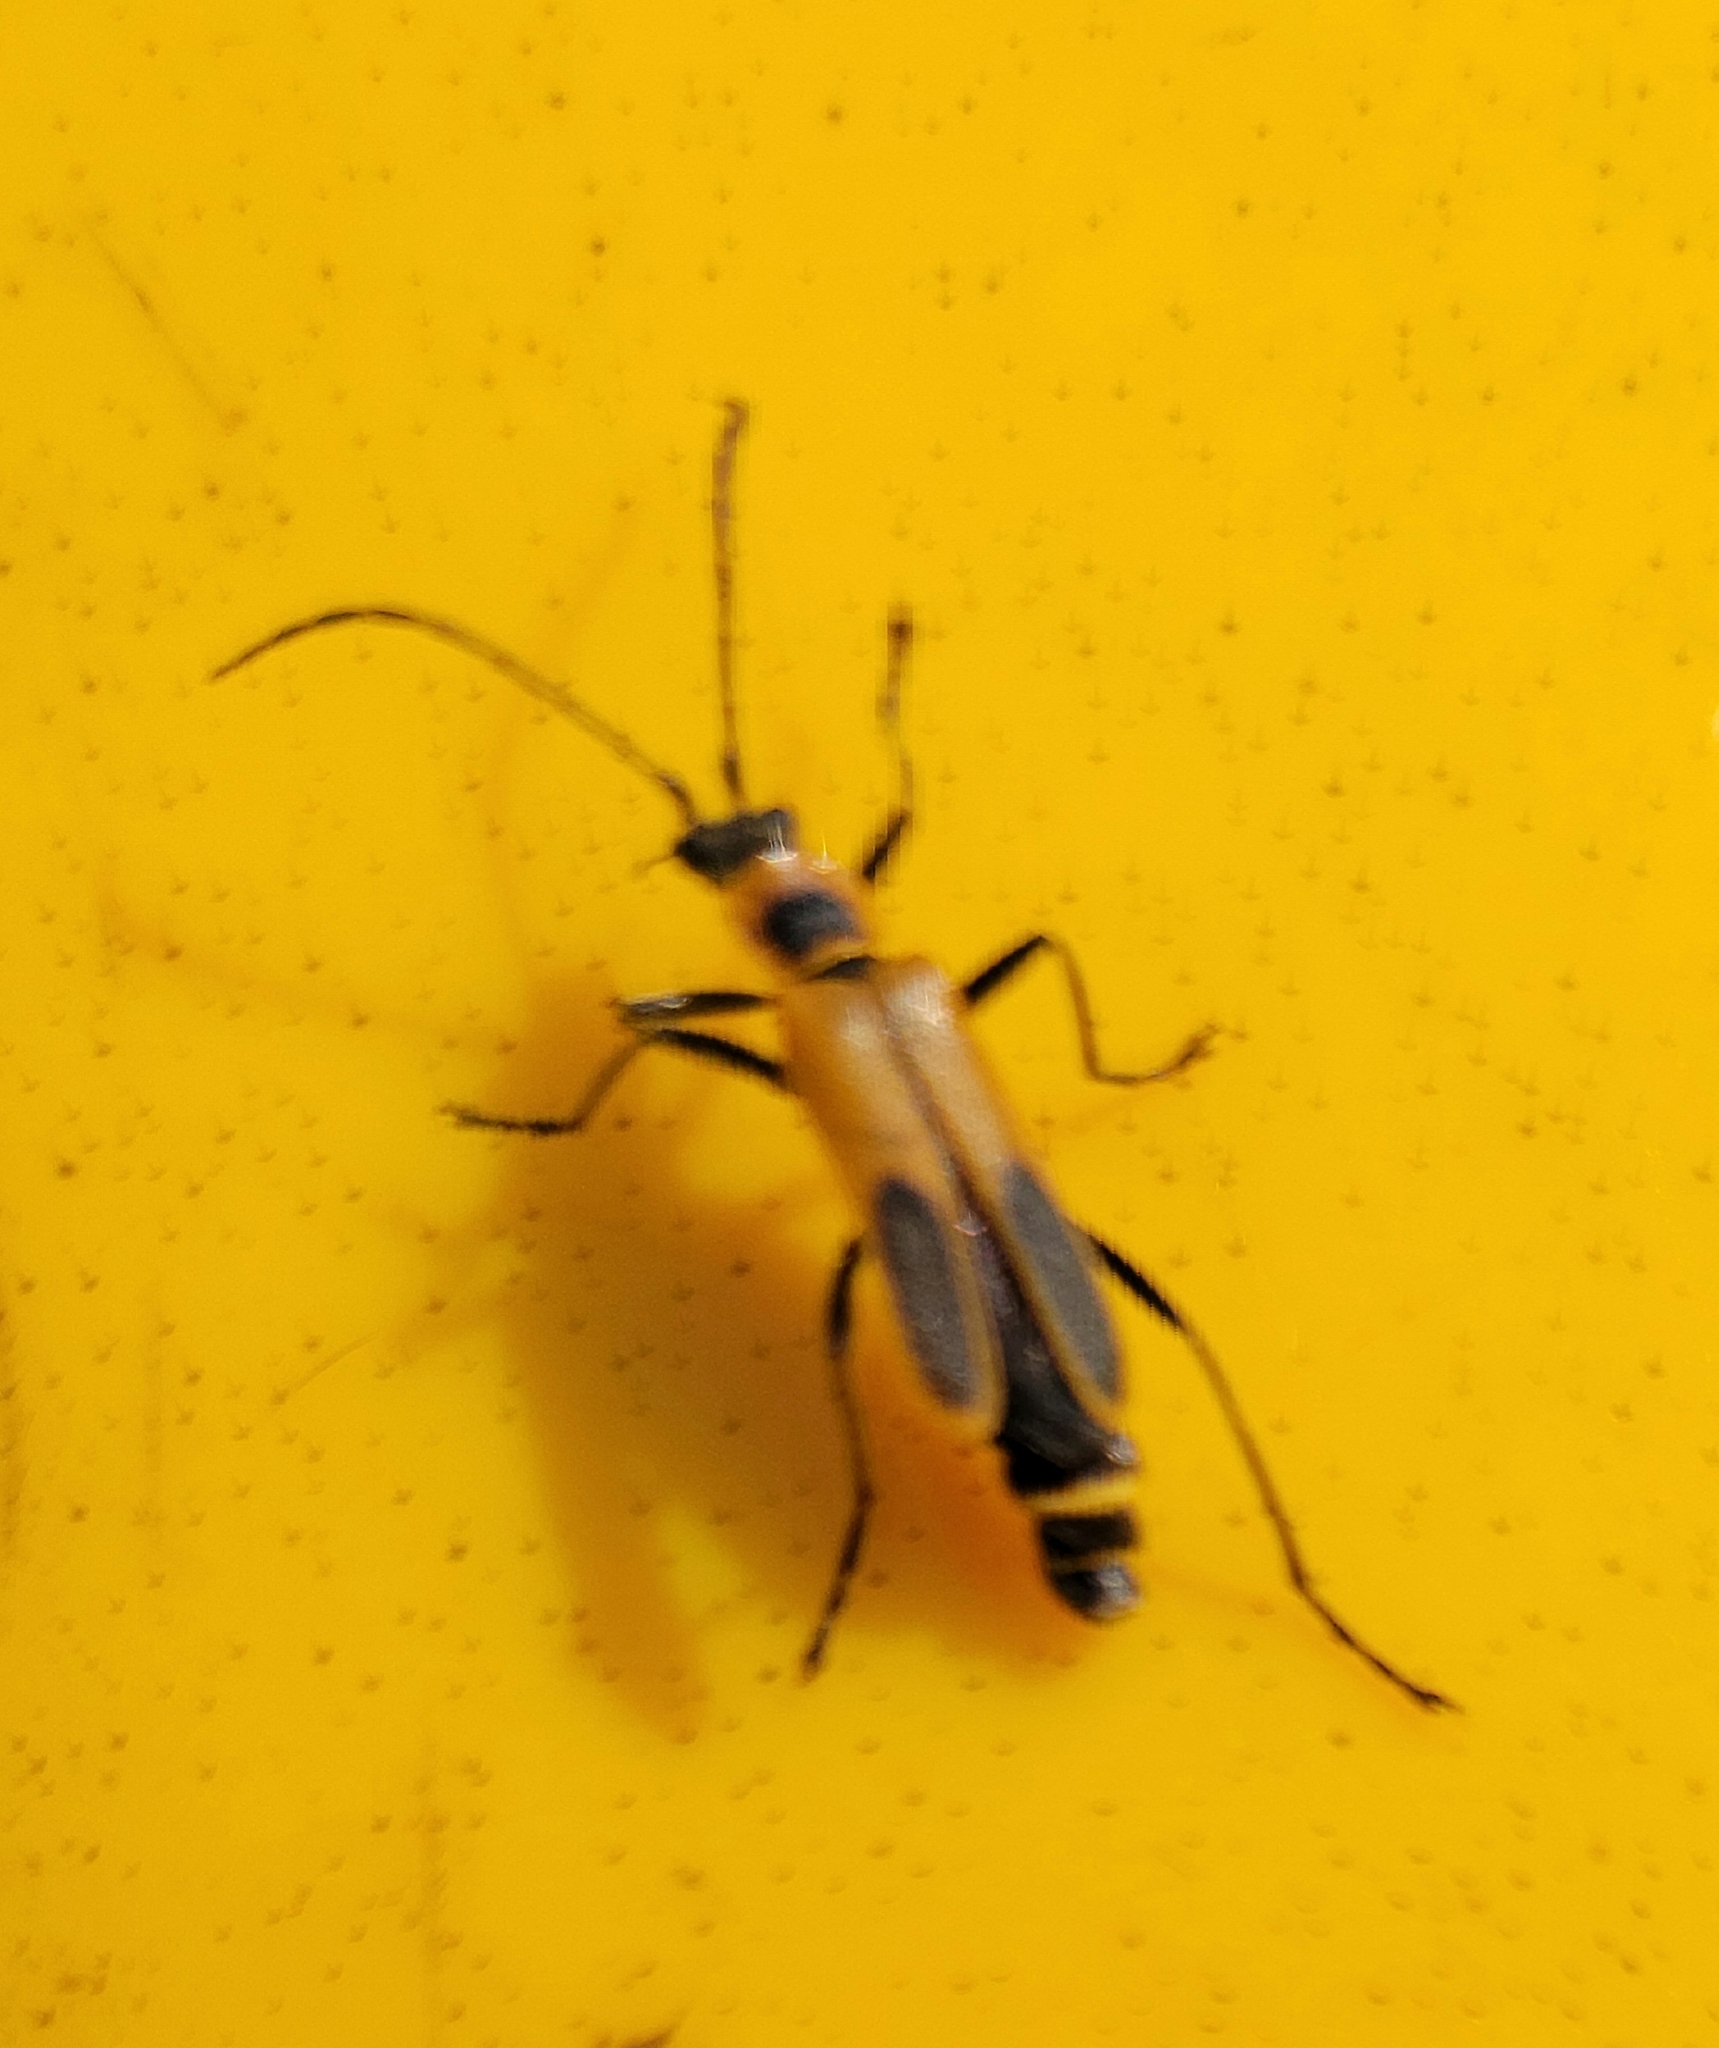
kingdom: Animalia
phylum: Arthropoda
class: Insecta
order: Coleoptera
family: Cantharidae
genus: Chauliognathus
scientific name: Chauliognathus pensylvanicus
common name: Goldenrod soldier beetle
